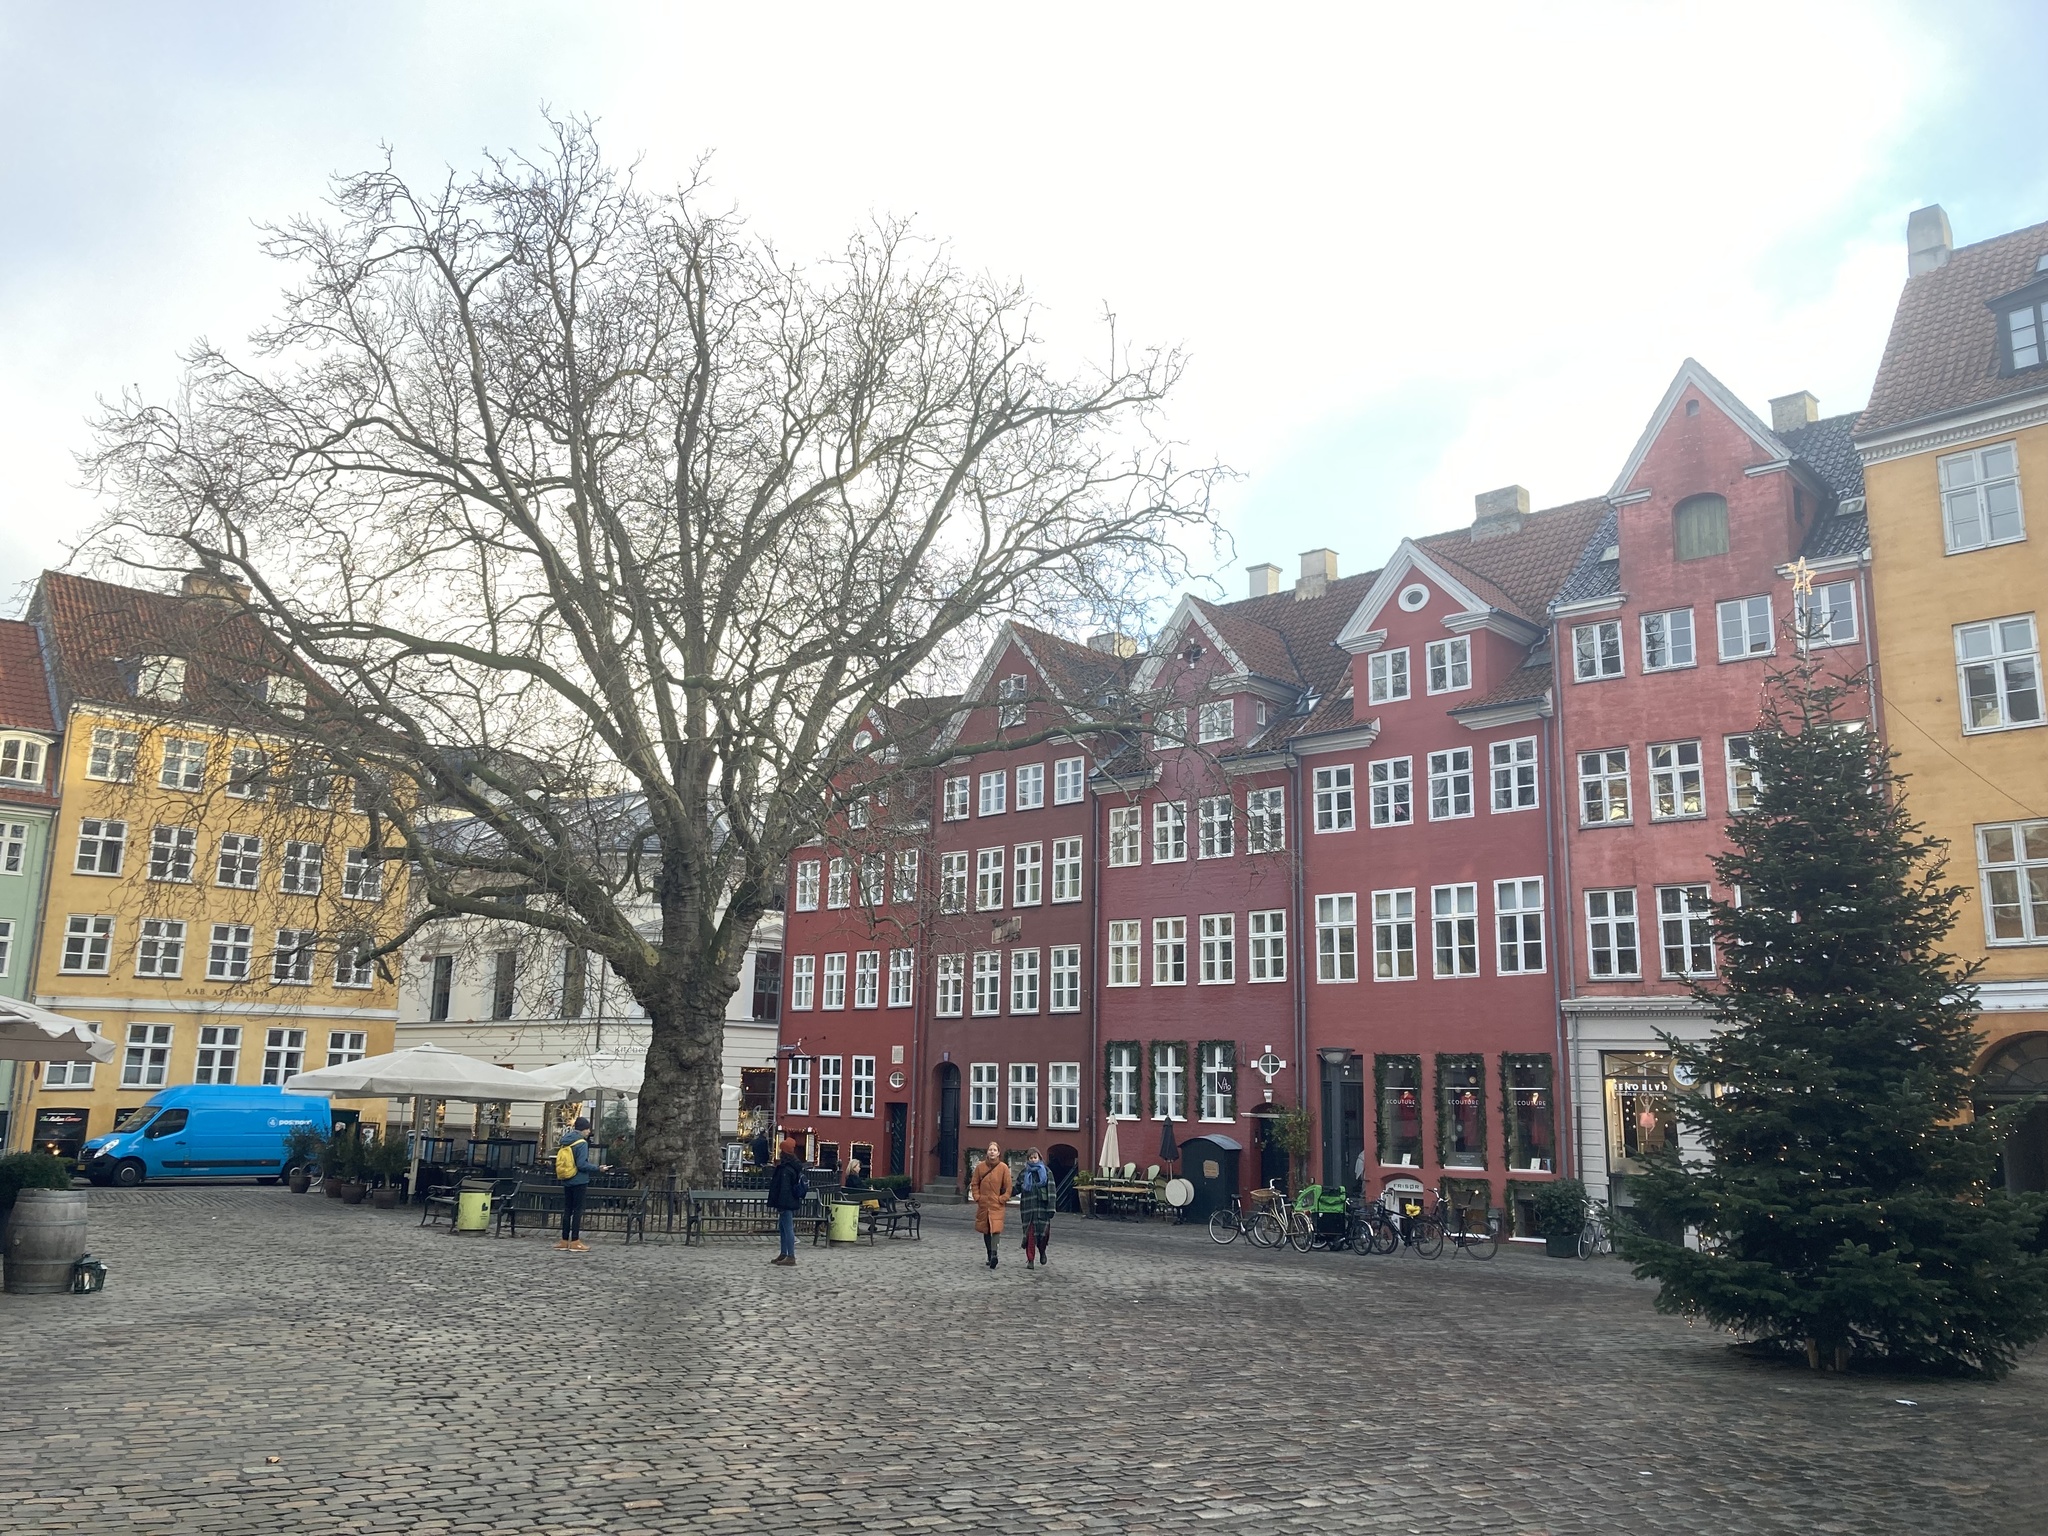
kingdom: Plantae
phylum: Tracheophyta
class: Magnoliopsida
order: Proteales
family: Platanaceae
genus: Platanus
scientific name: Platanus hispanica
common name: London plane
